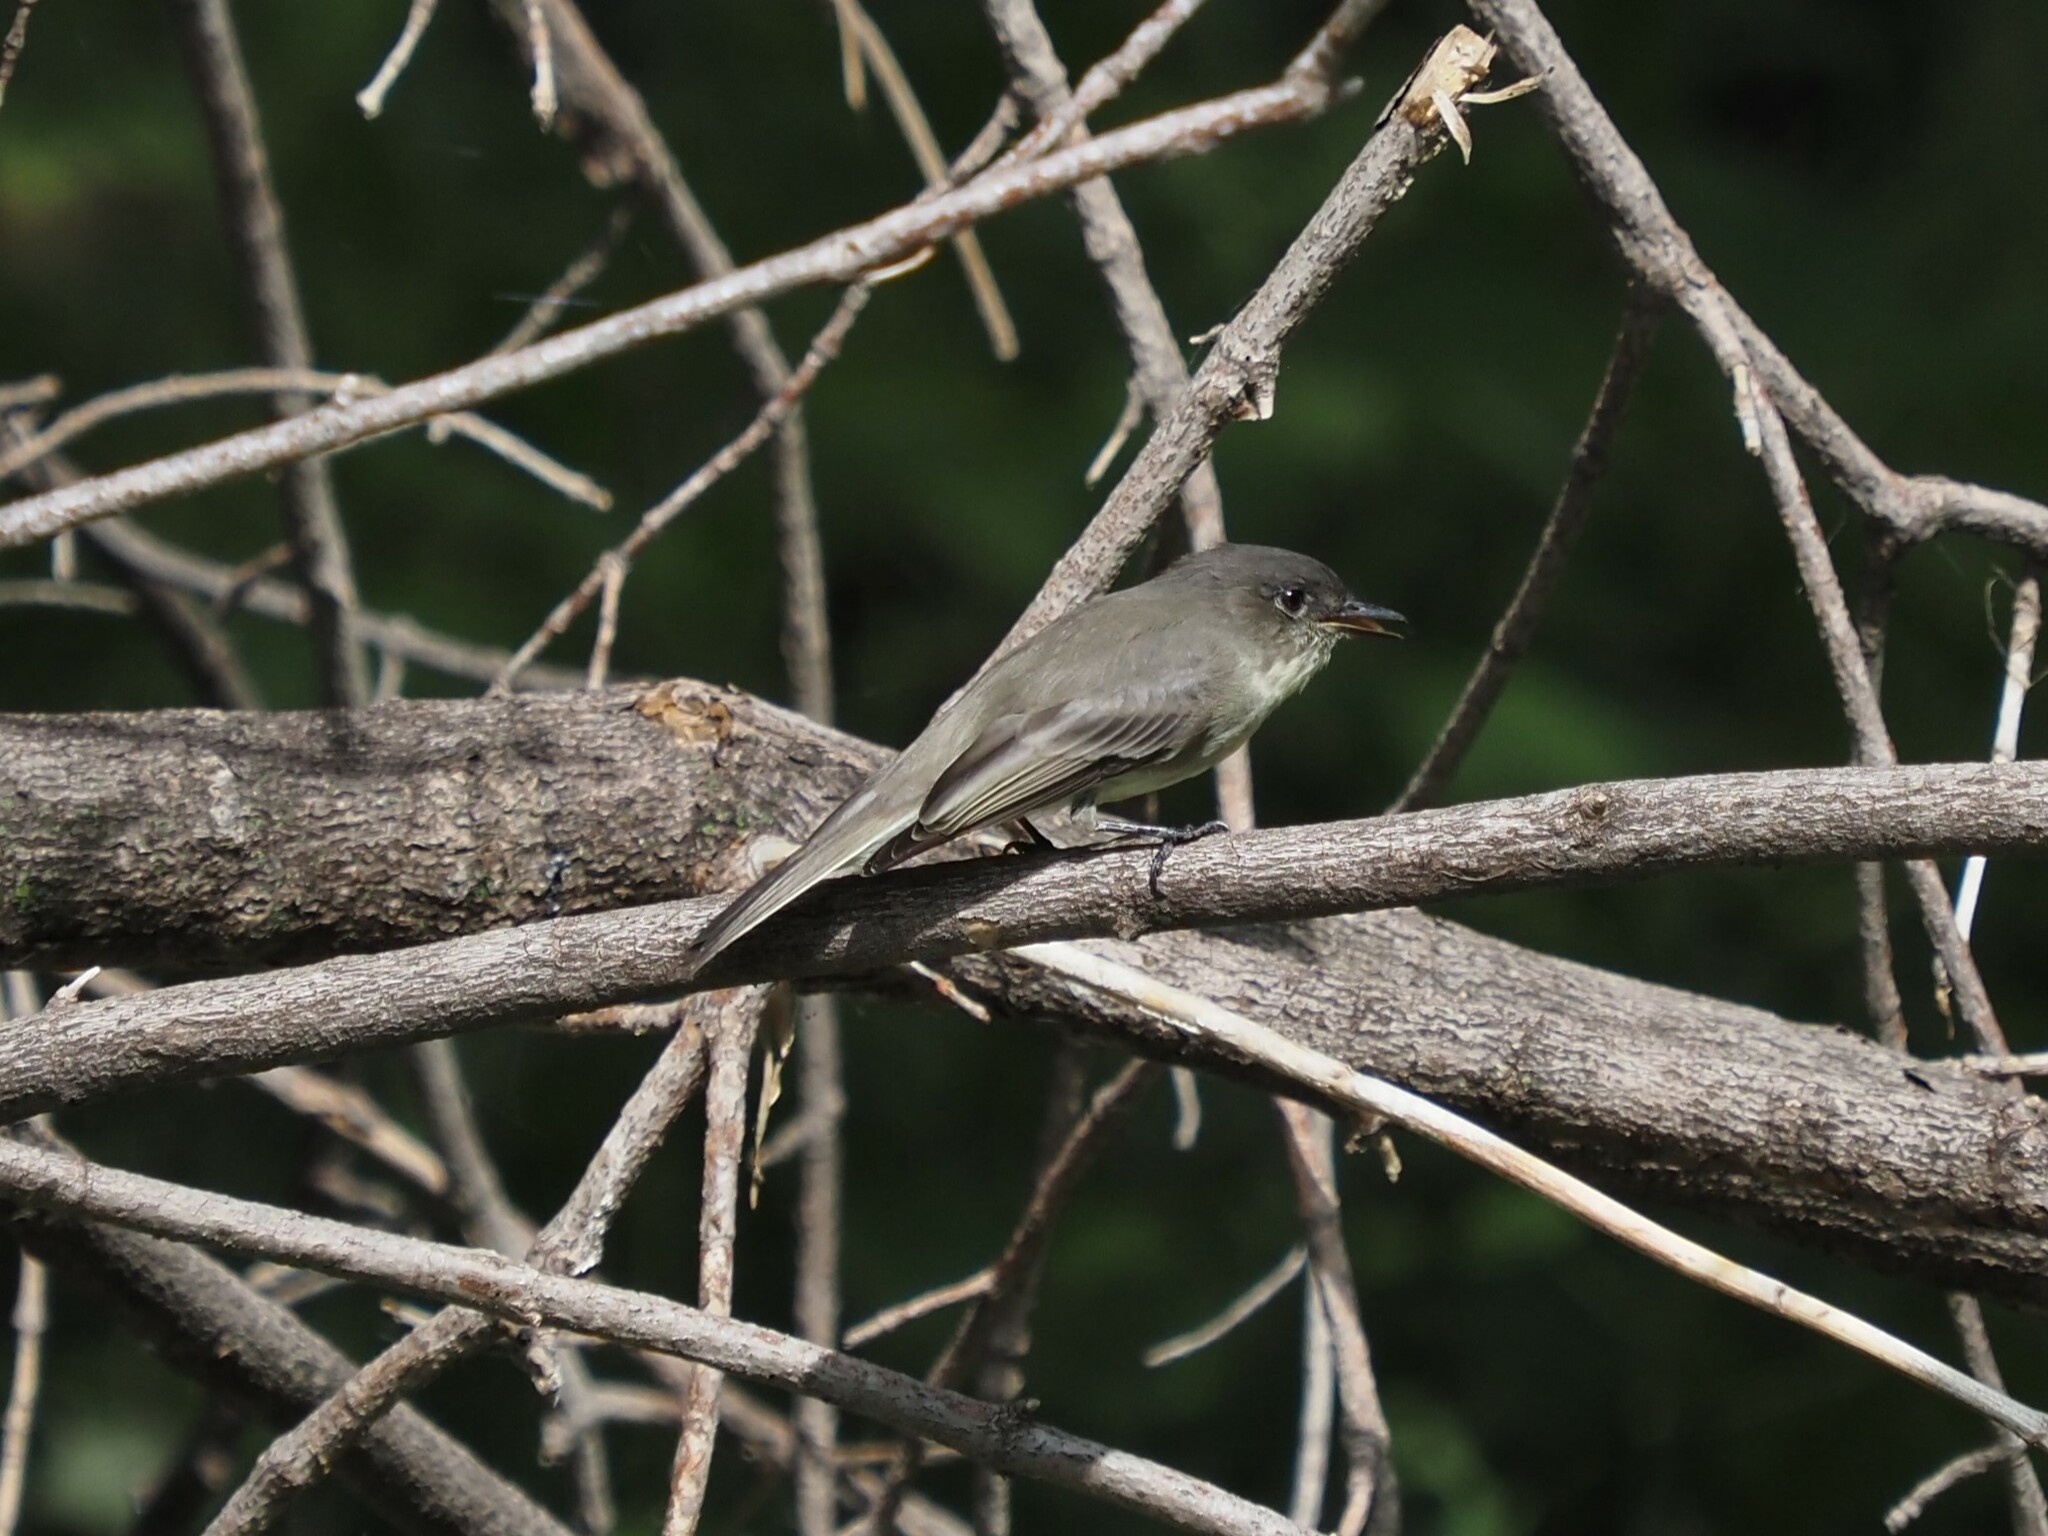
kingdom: Animalia
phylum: Chordata
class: Aves
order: Passeriformes
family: Tyrannidae
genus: Sayornis
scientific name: Sayornis phoebe
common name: Eastern phoebe
